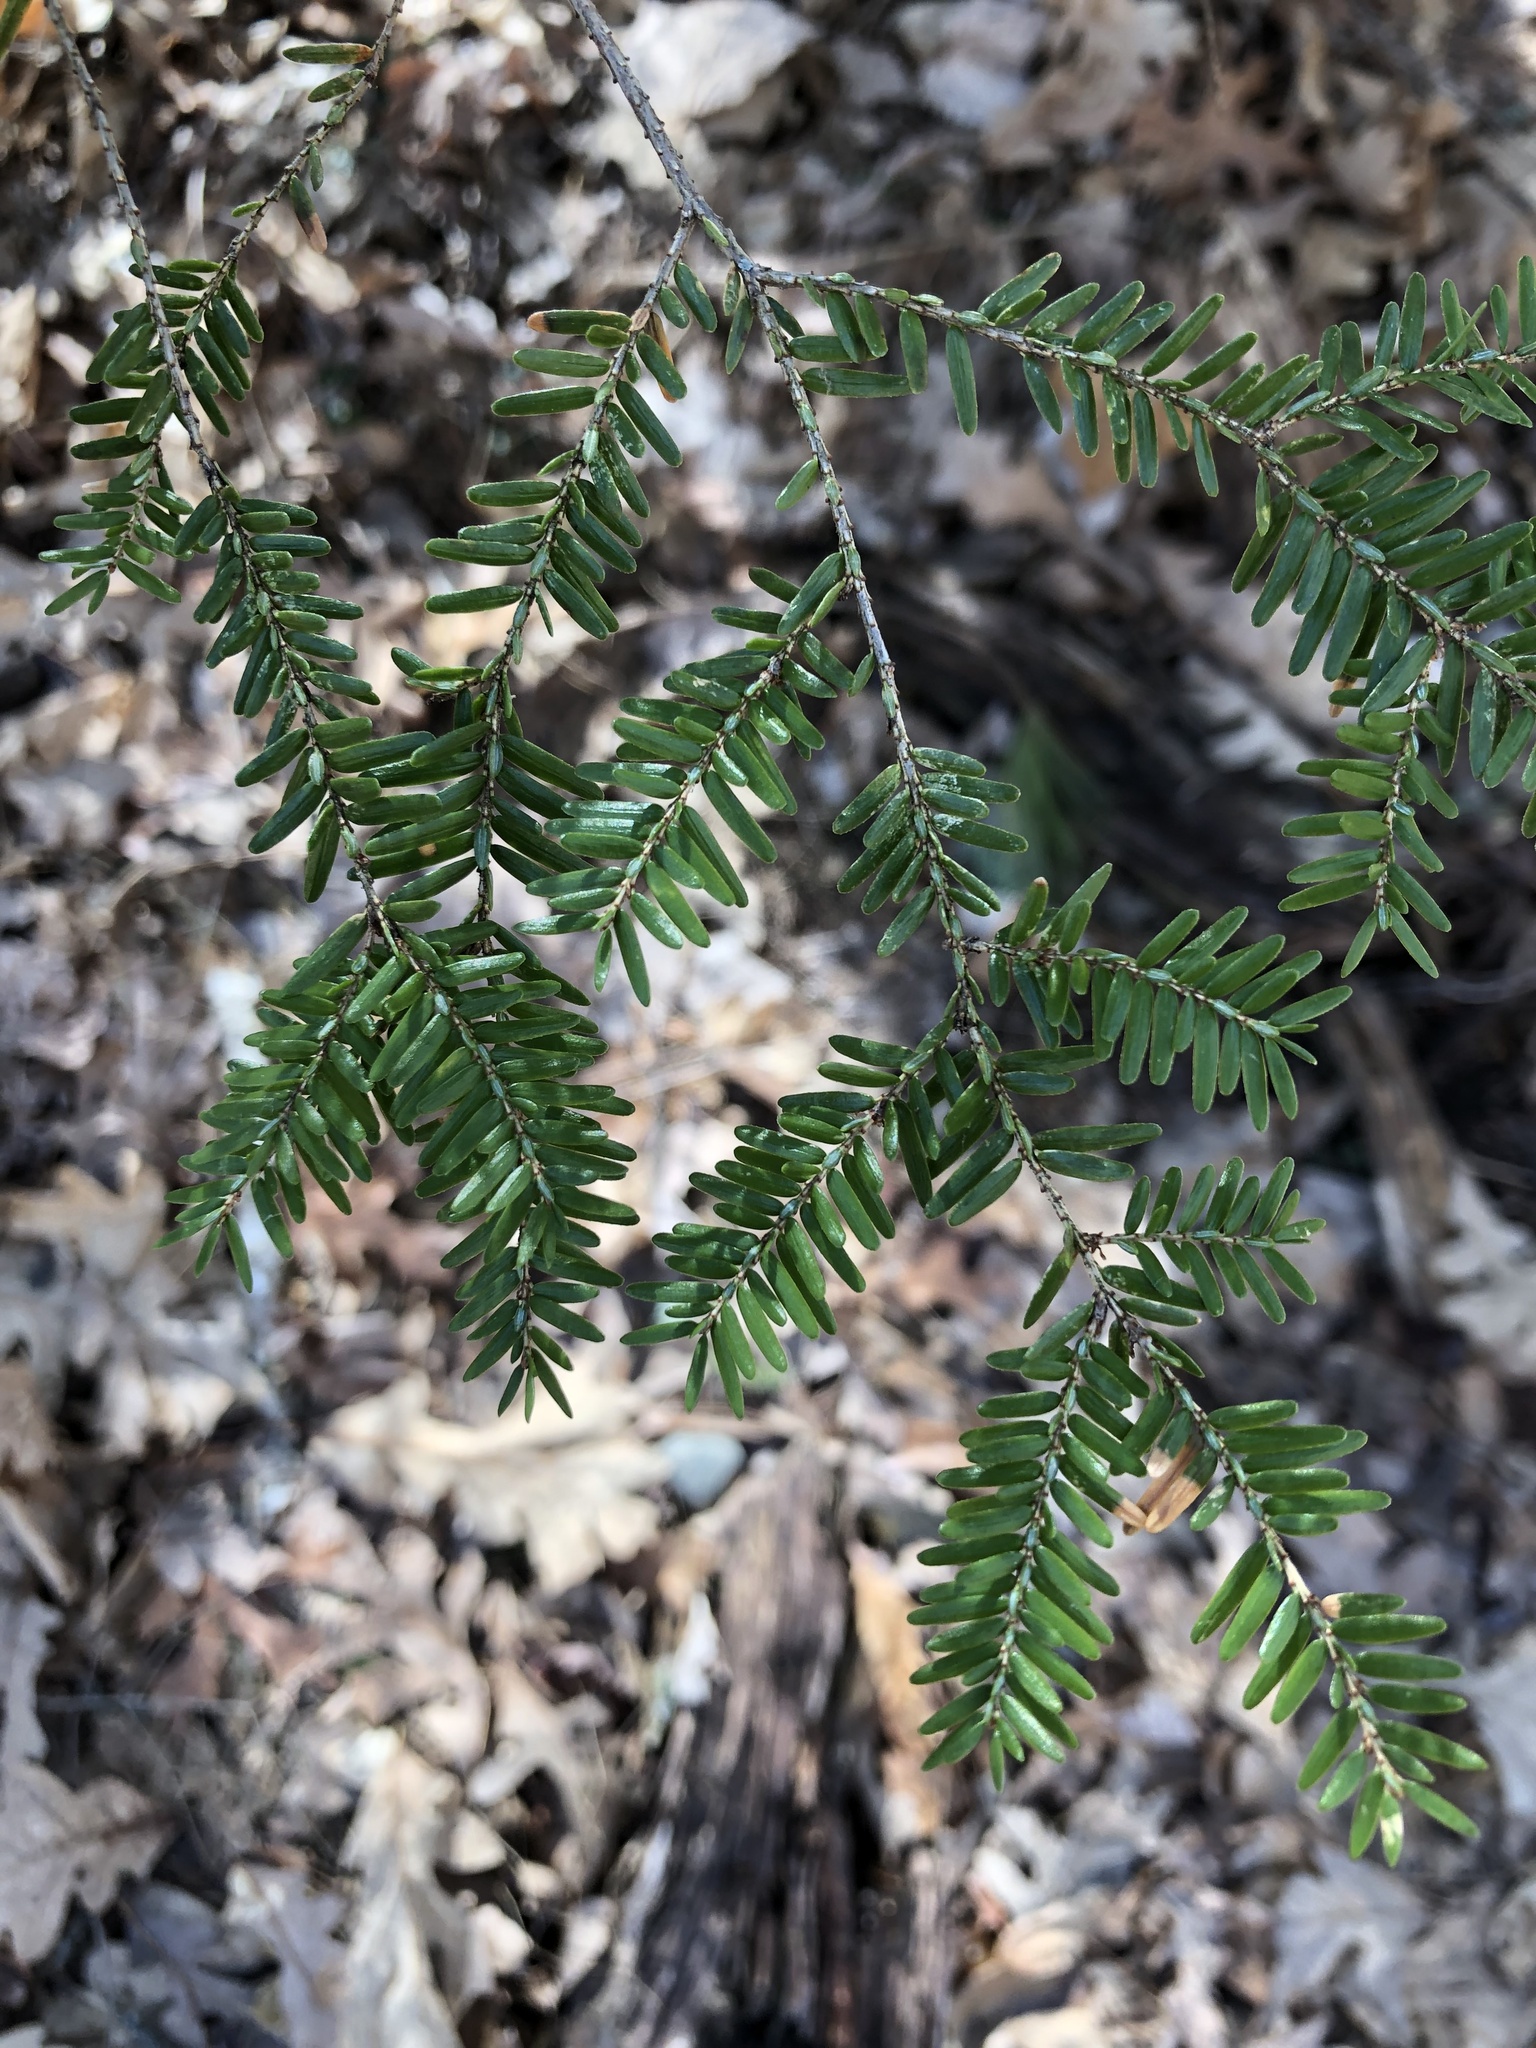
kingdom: Plantae
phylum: Tracheophyta
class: Pinopsida
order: Pinales
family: Pinaceae
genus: Tsuga
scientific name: Tsuga canadensis
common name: Eastern hemlock
